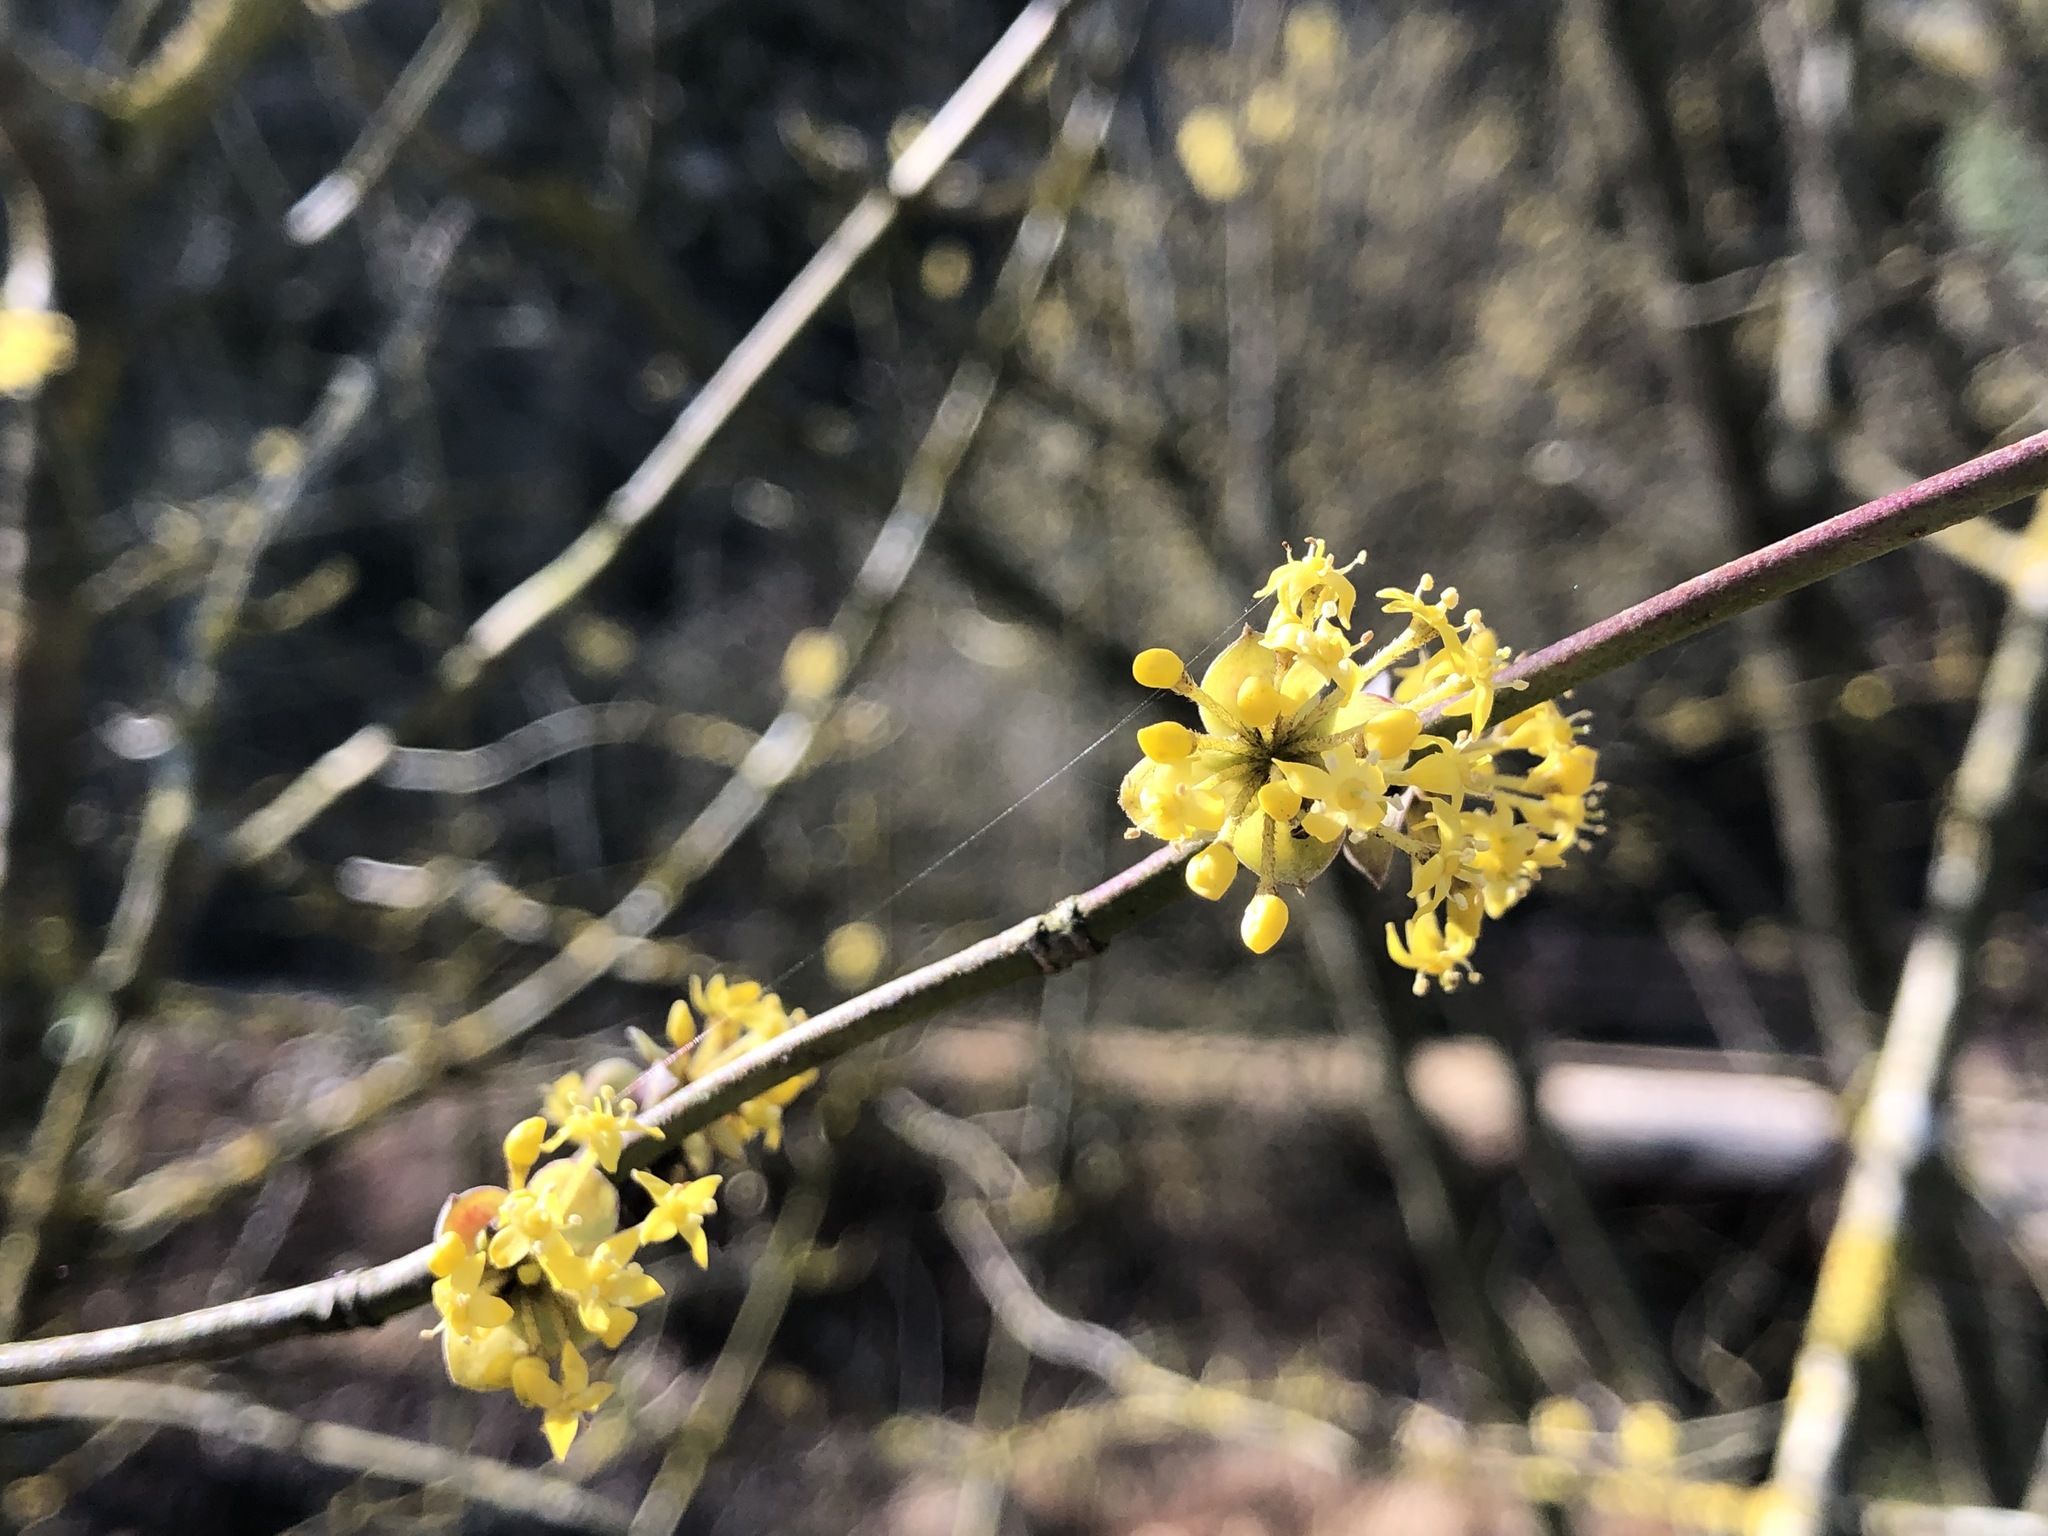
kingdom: Plantae
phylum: Tracheophyta
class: Magnoliopsida
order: Cornales
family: Cornaceae
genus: Cornus
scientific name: Cornus mas
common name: Cornelian-cherry
